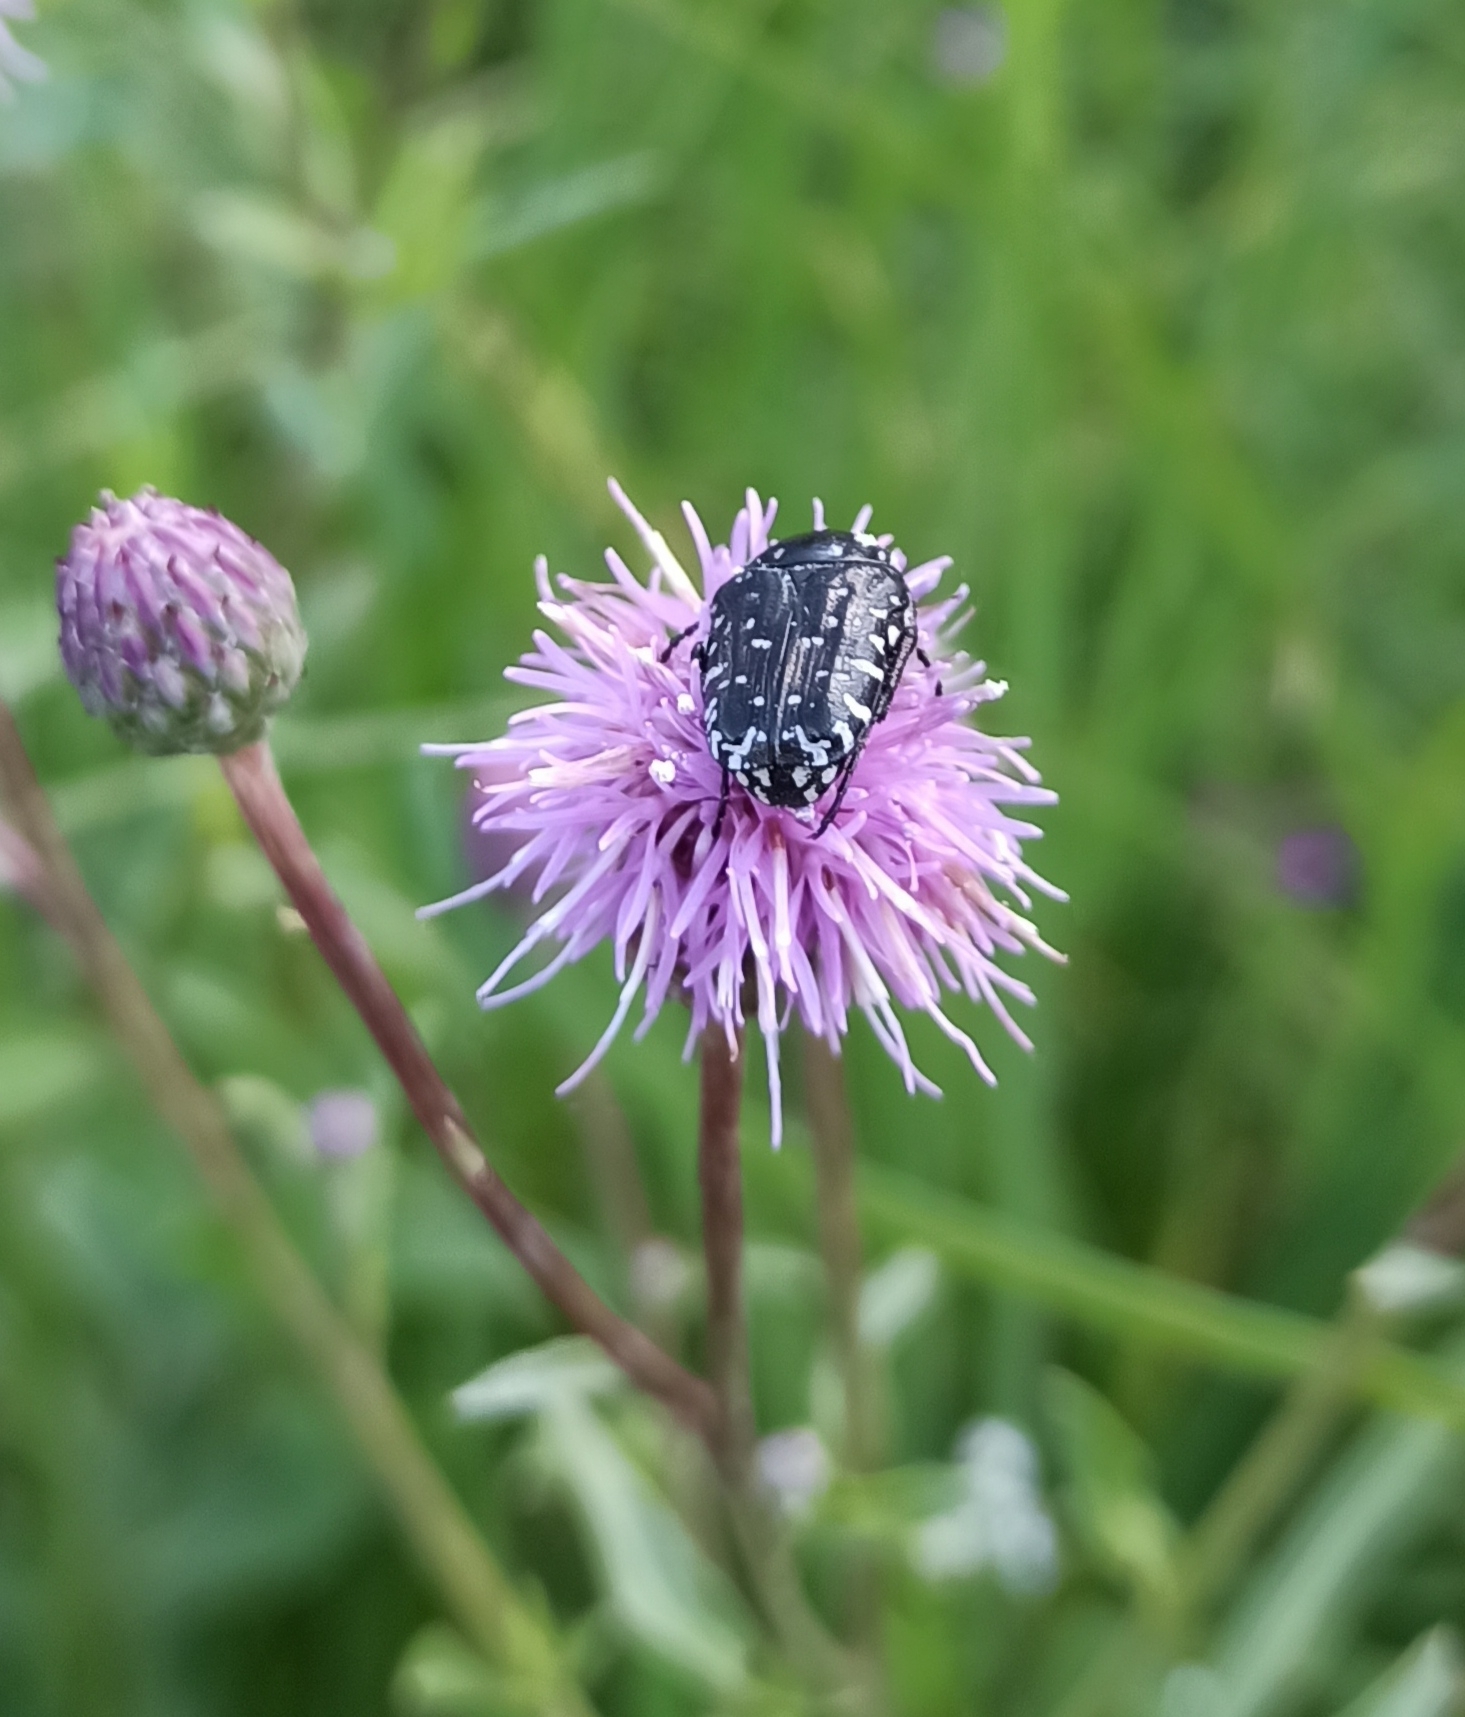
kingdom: Animalia
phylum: Arthropoda
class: Insecta
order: Coleoptera
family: Scarabaeidae
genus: Oxythyrea
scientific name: Oxythyrea funesta
